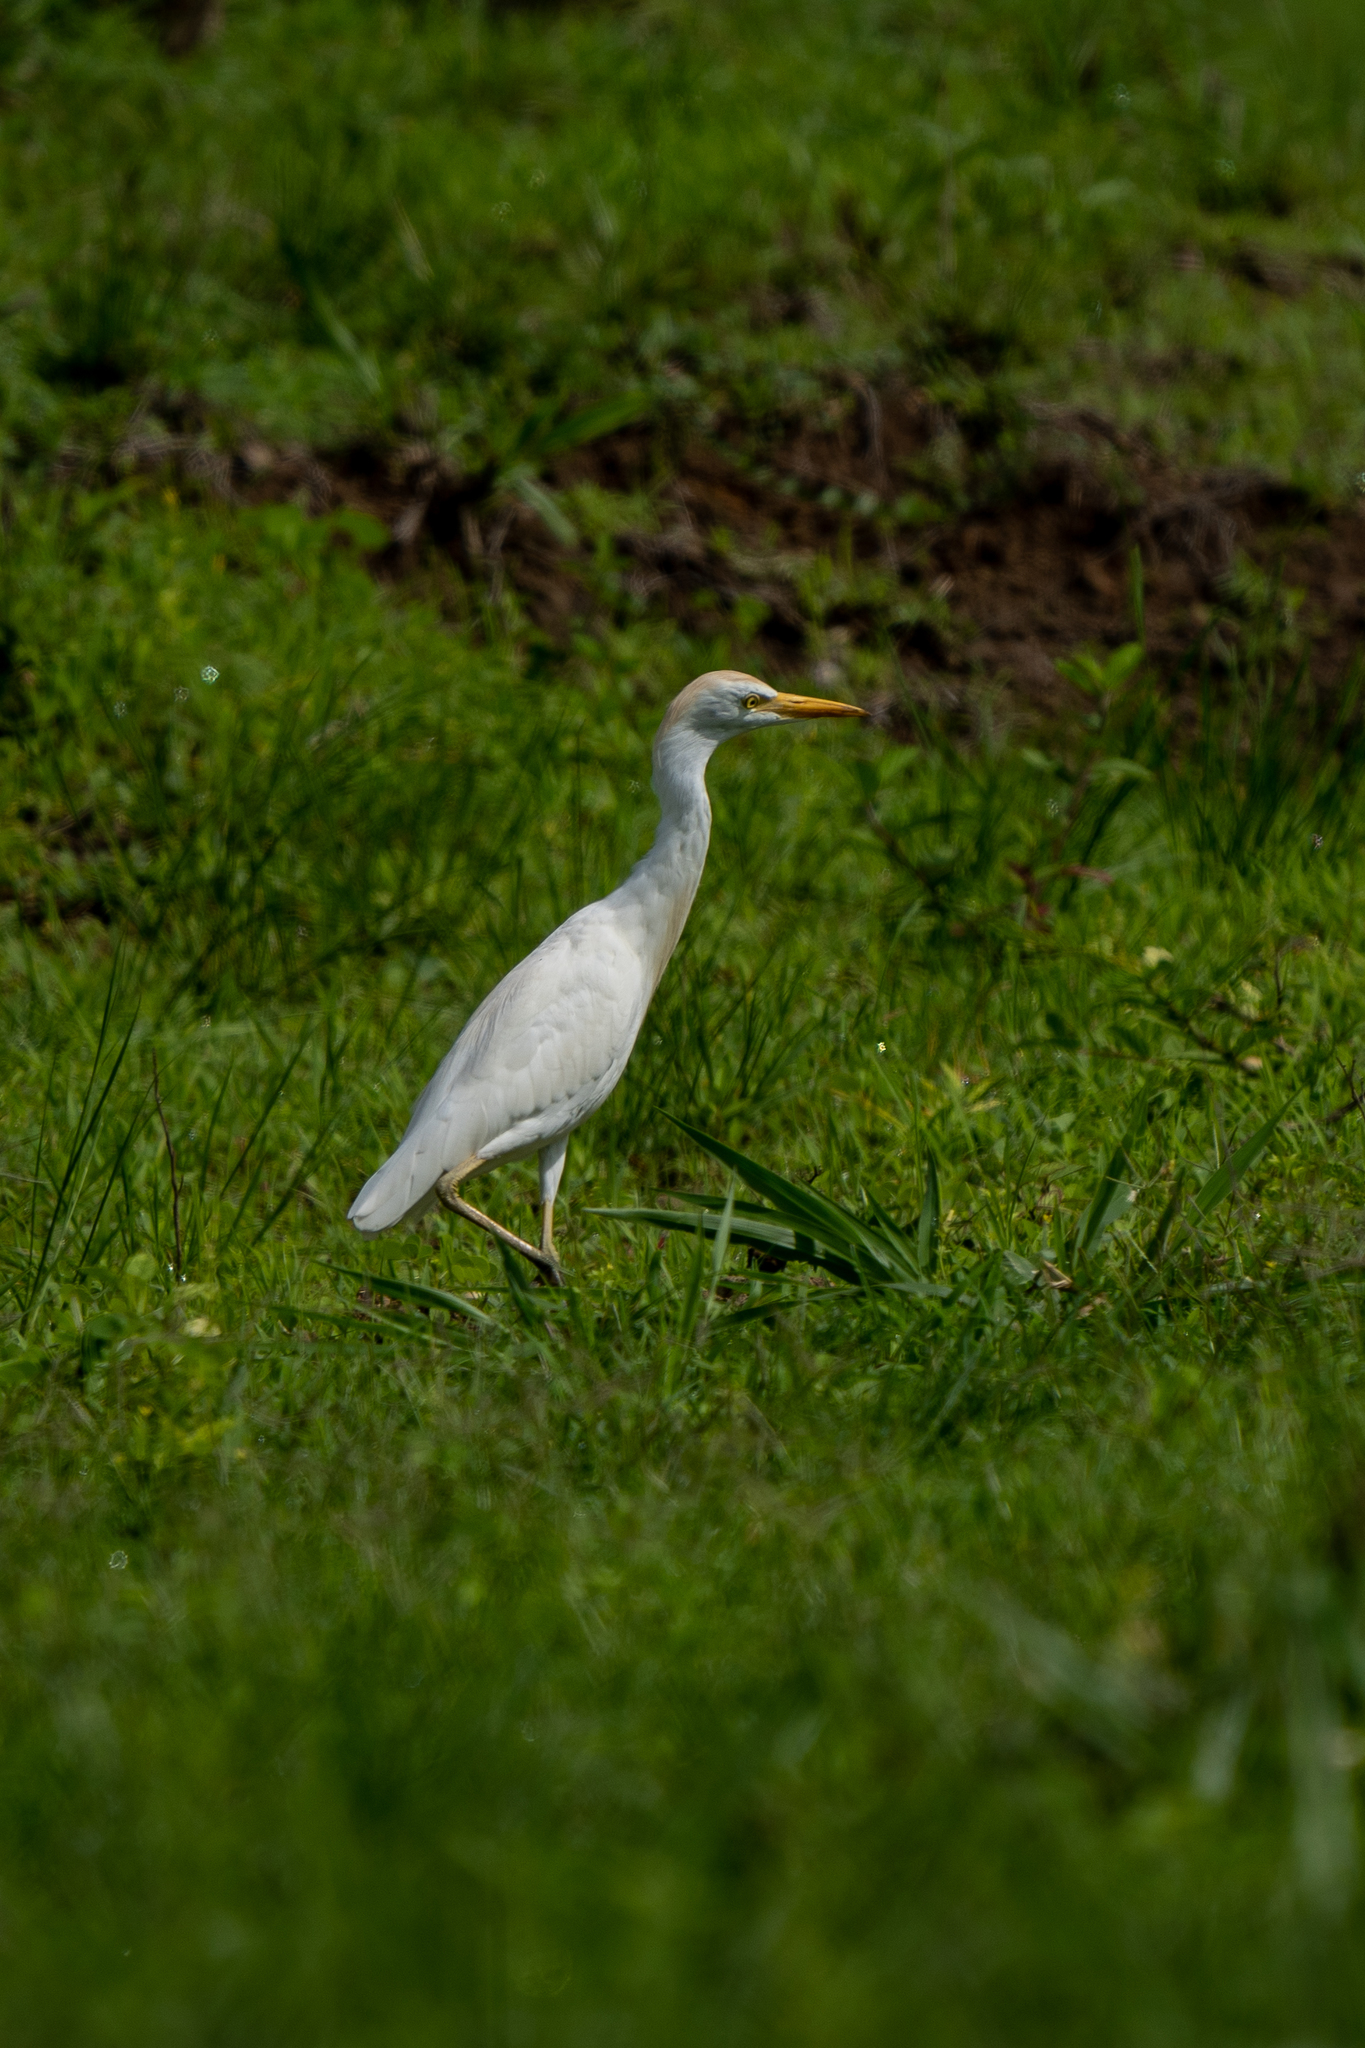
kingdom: Animalia
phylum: Chordata
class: Aves
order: Pelecaniformes
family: Ardeidae
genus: Bubulcus
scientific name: Bubulcus ibis
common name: Cattle egret
